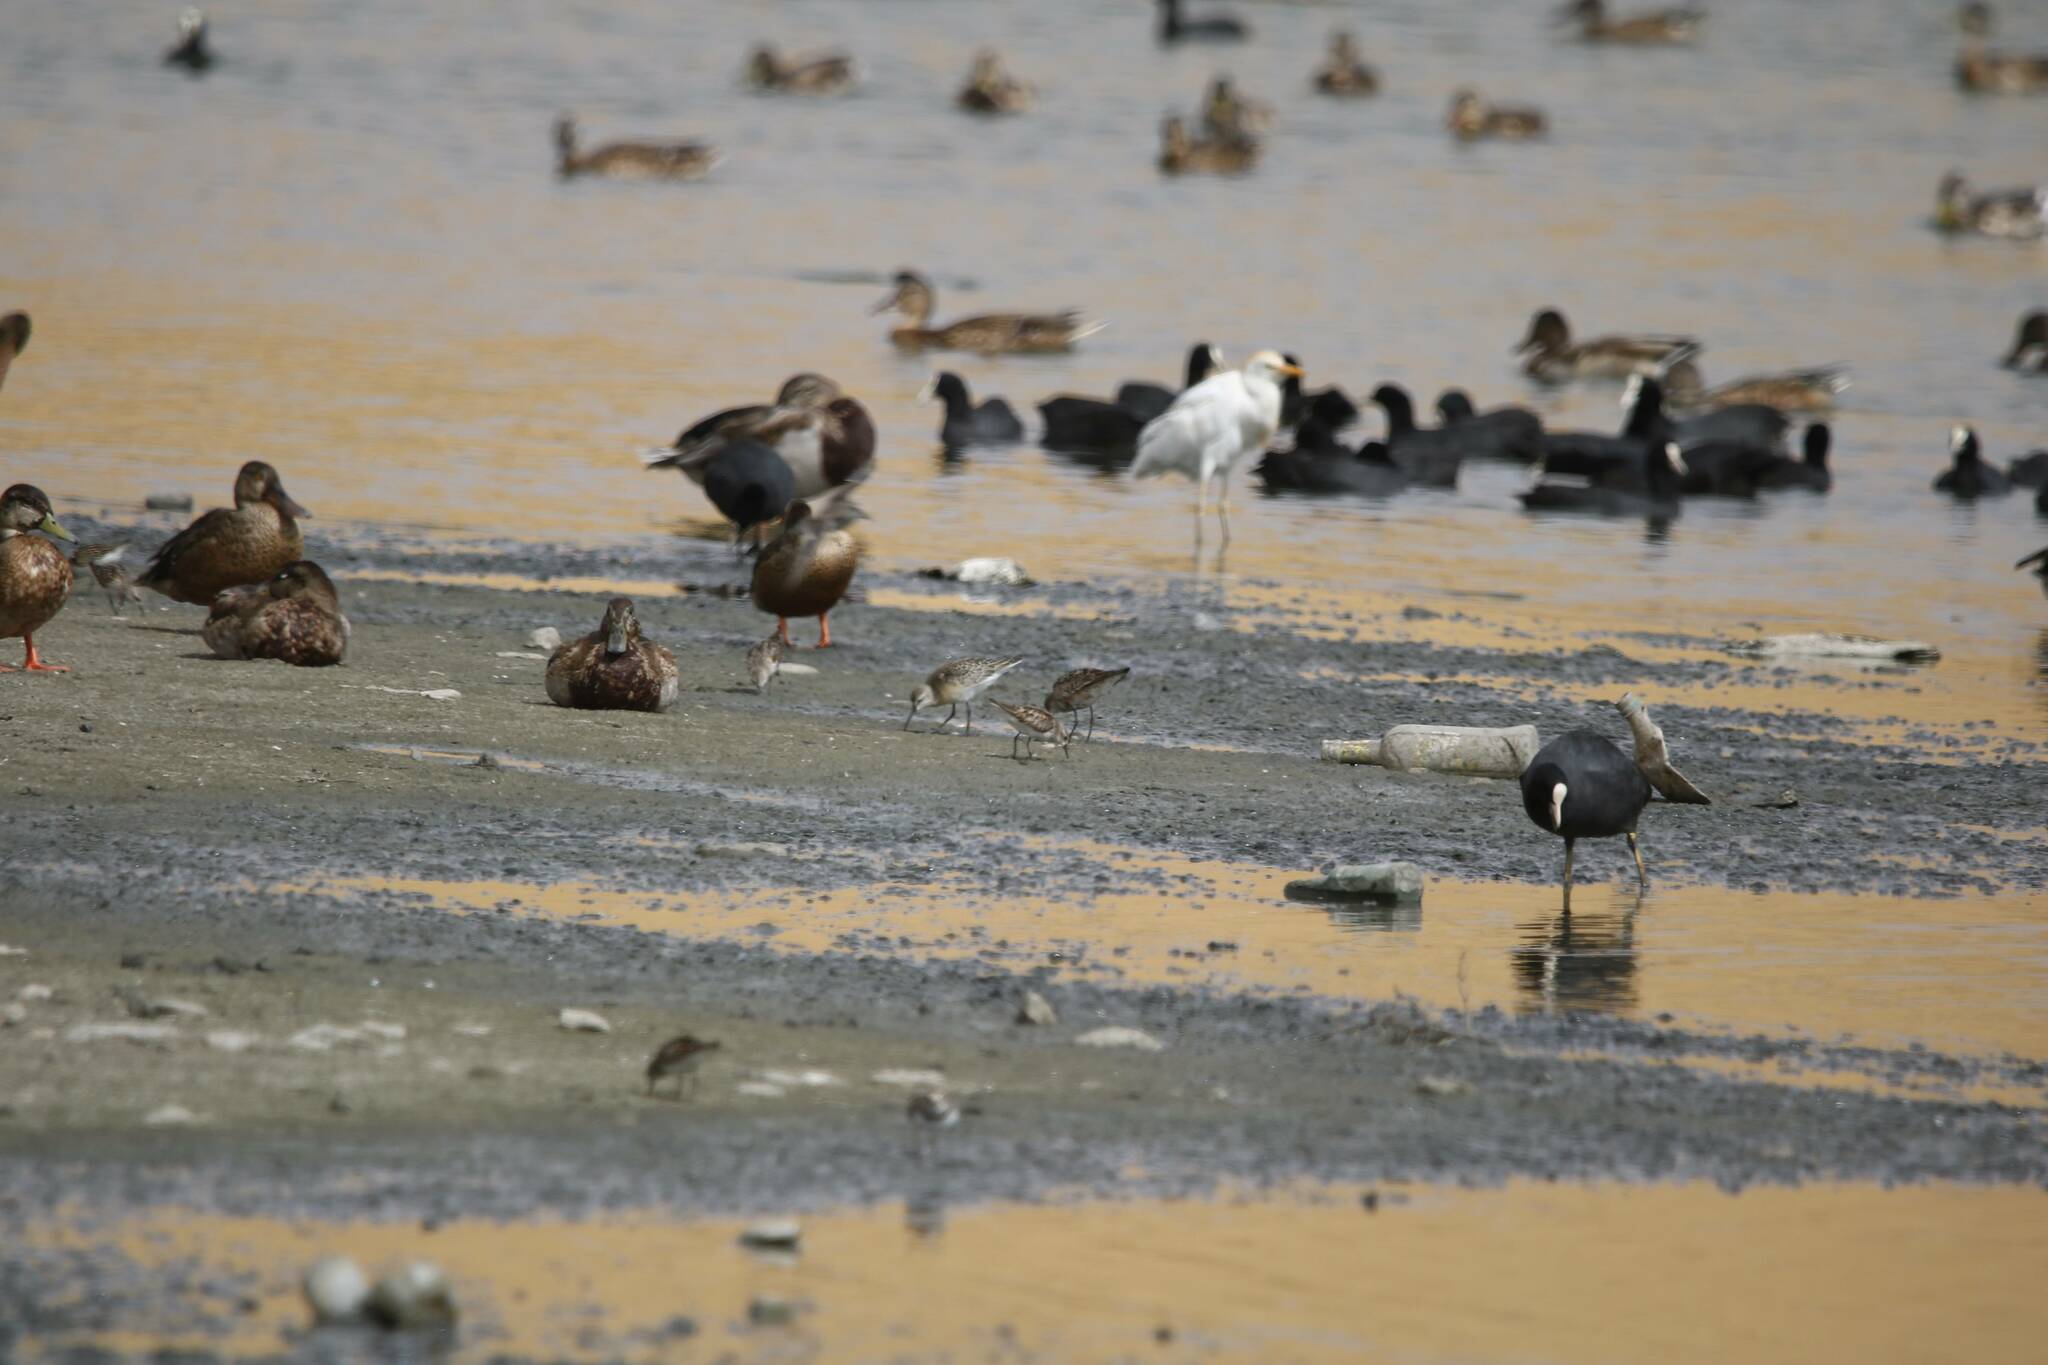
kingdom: Animalia
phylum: Chordata
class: Aves
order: Gruiformes
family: Rallidae
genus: Fulica
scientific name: Fulica atra
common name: Eurasian coot
